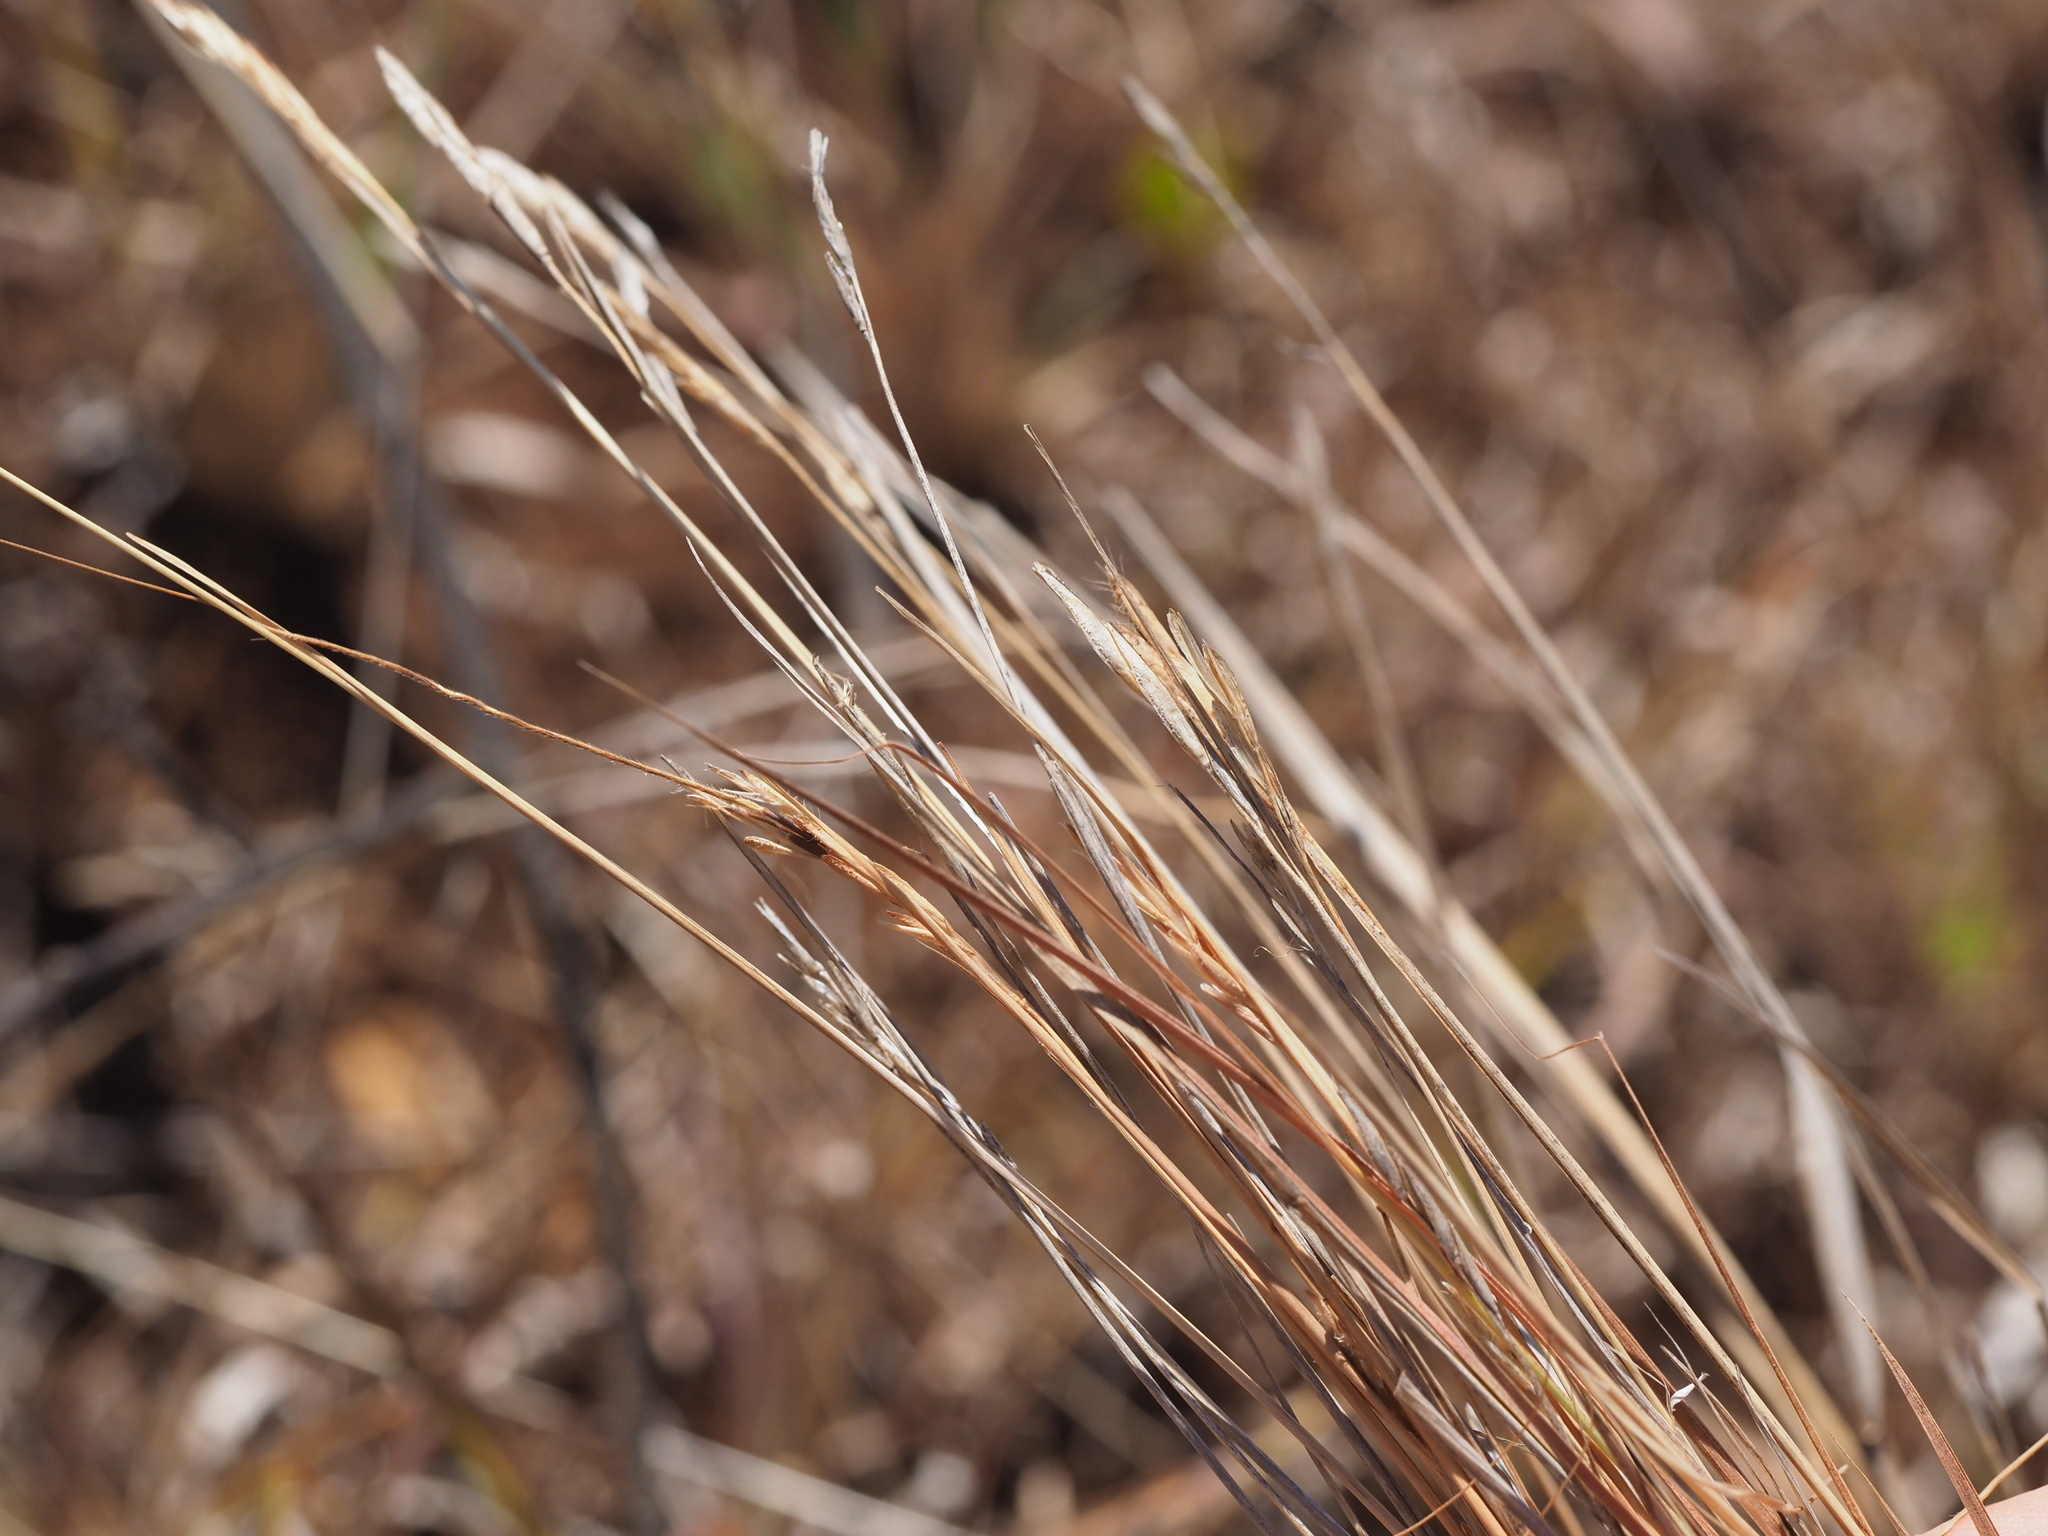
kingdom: Plantae
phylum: Tracheophyta
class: Liliopsida
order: Poales
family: Poaceae
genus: Heteropogon
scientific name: Heteropogon contortus
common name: Tanglehead
